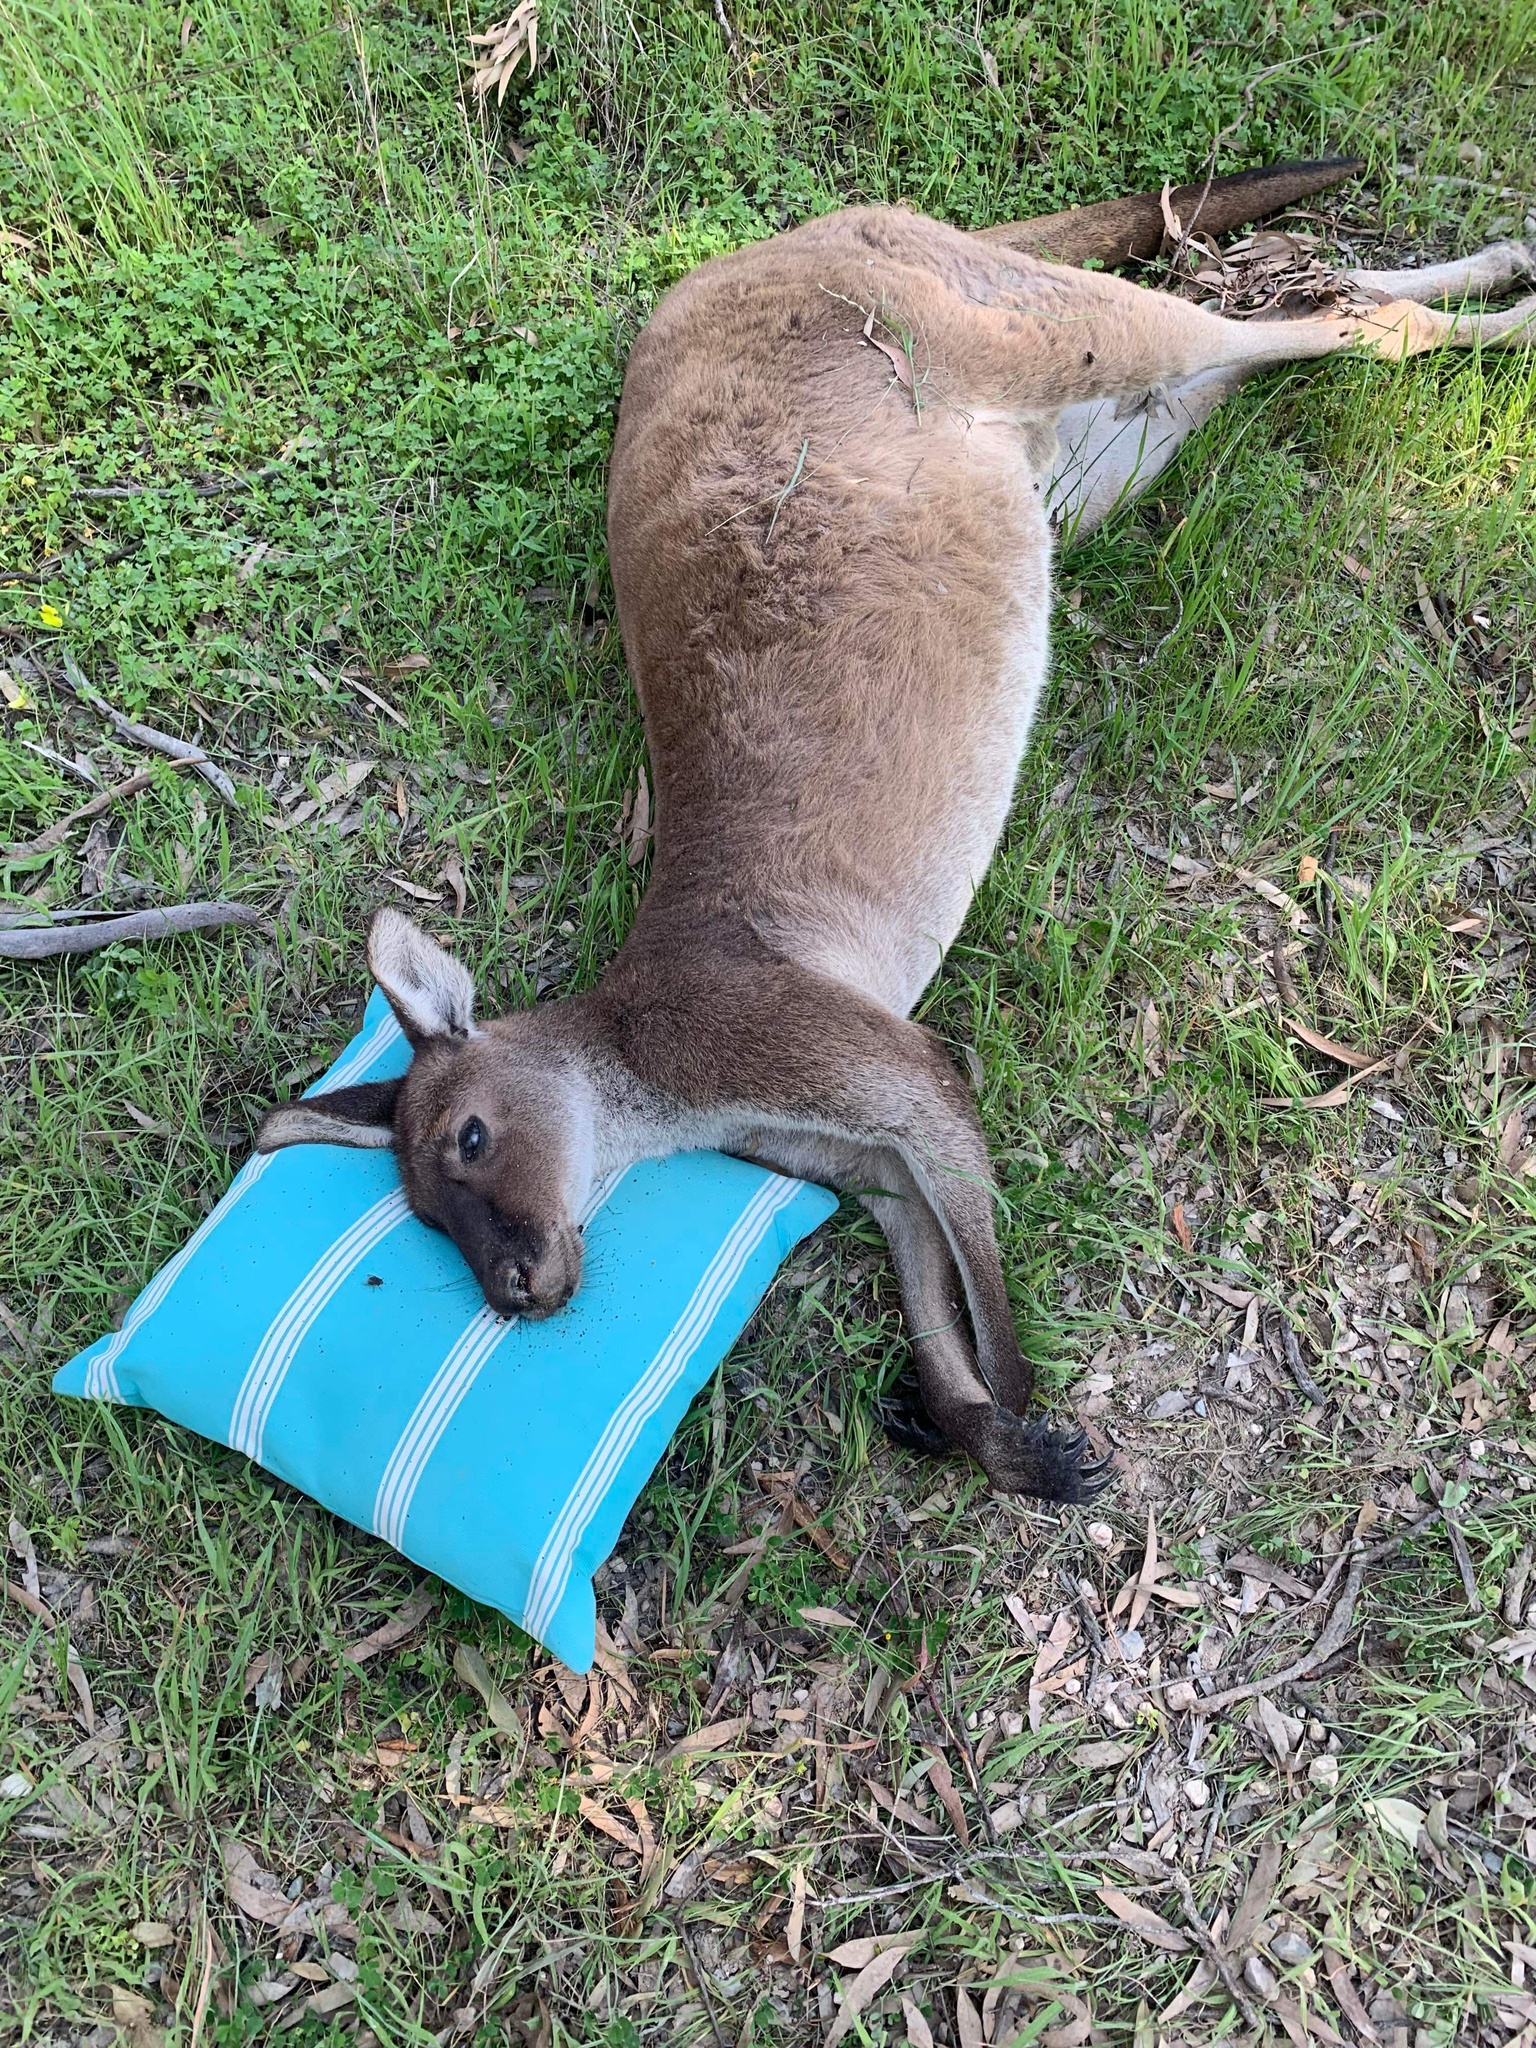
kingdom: Animalia
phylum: Chordata
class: Mammalia
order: Diprotodontia
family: Macropodidae
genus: Macropus
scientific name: Macropus fuliginosus
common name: Western grey kangaroo
